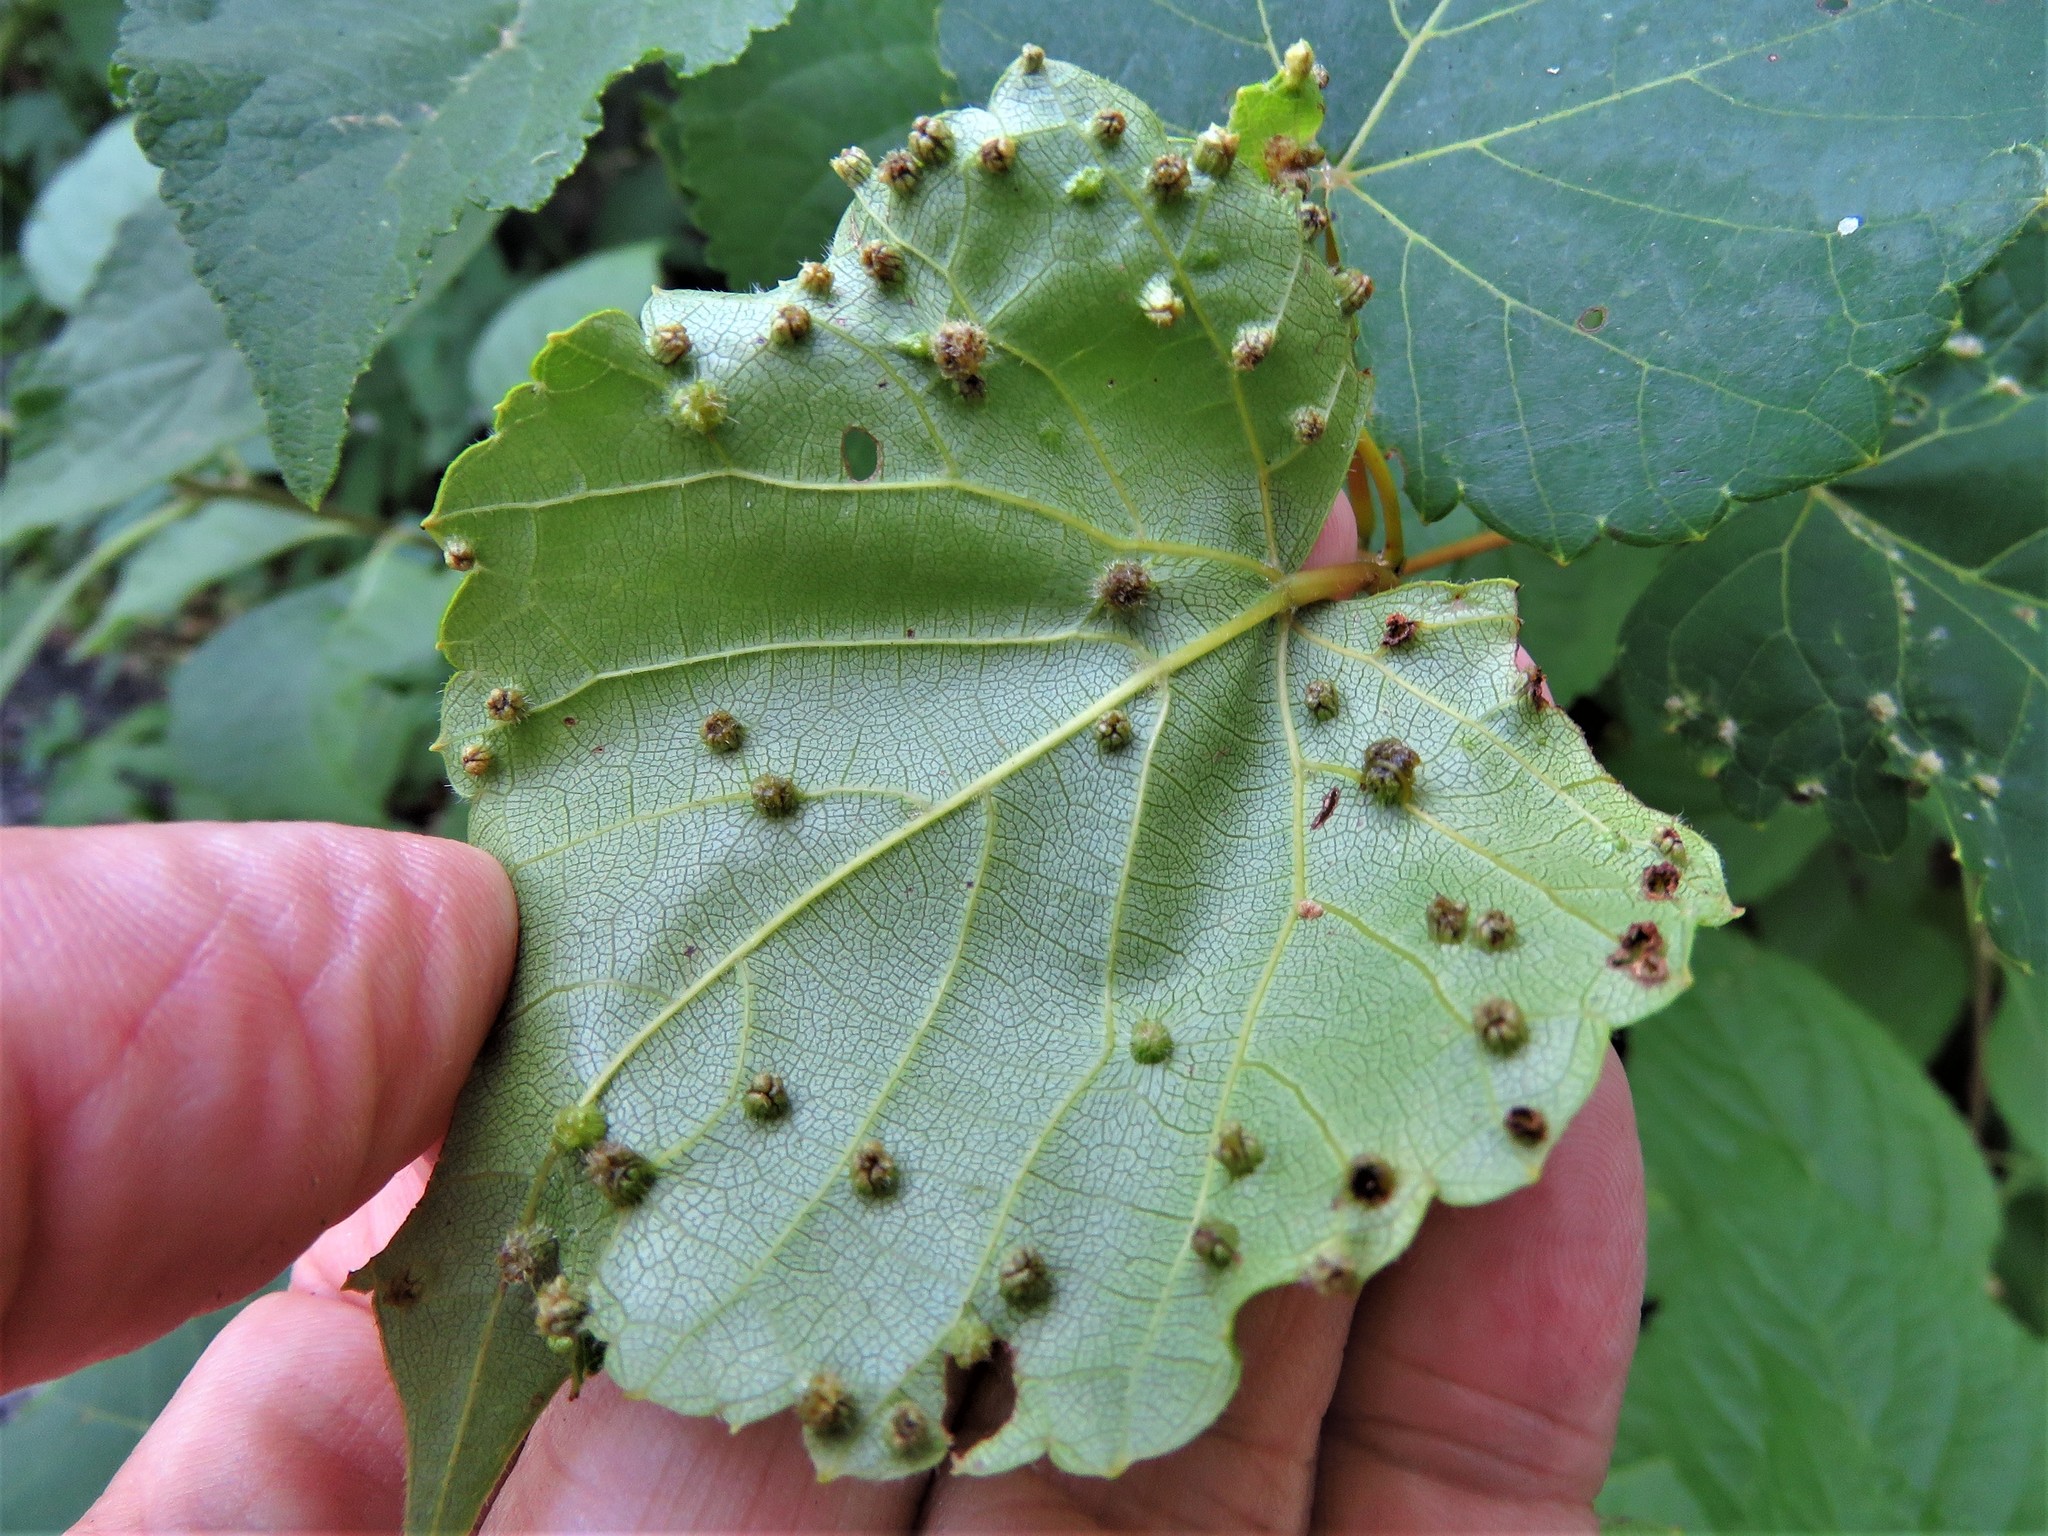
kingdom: Animalia
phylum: Arthropoda
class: Insecta
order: Hemiptera
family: Phylloxeridae
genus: Daktulosphaira
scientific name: Daktulosphaira vitifoliae
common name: Grape phylloxera
